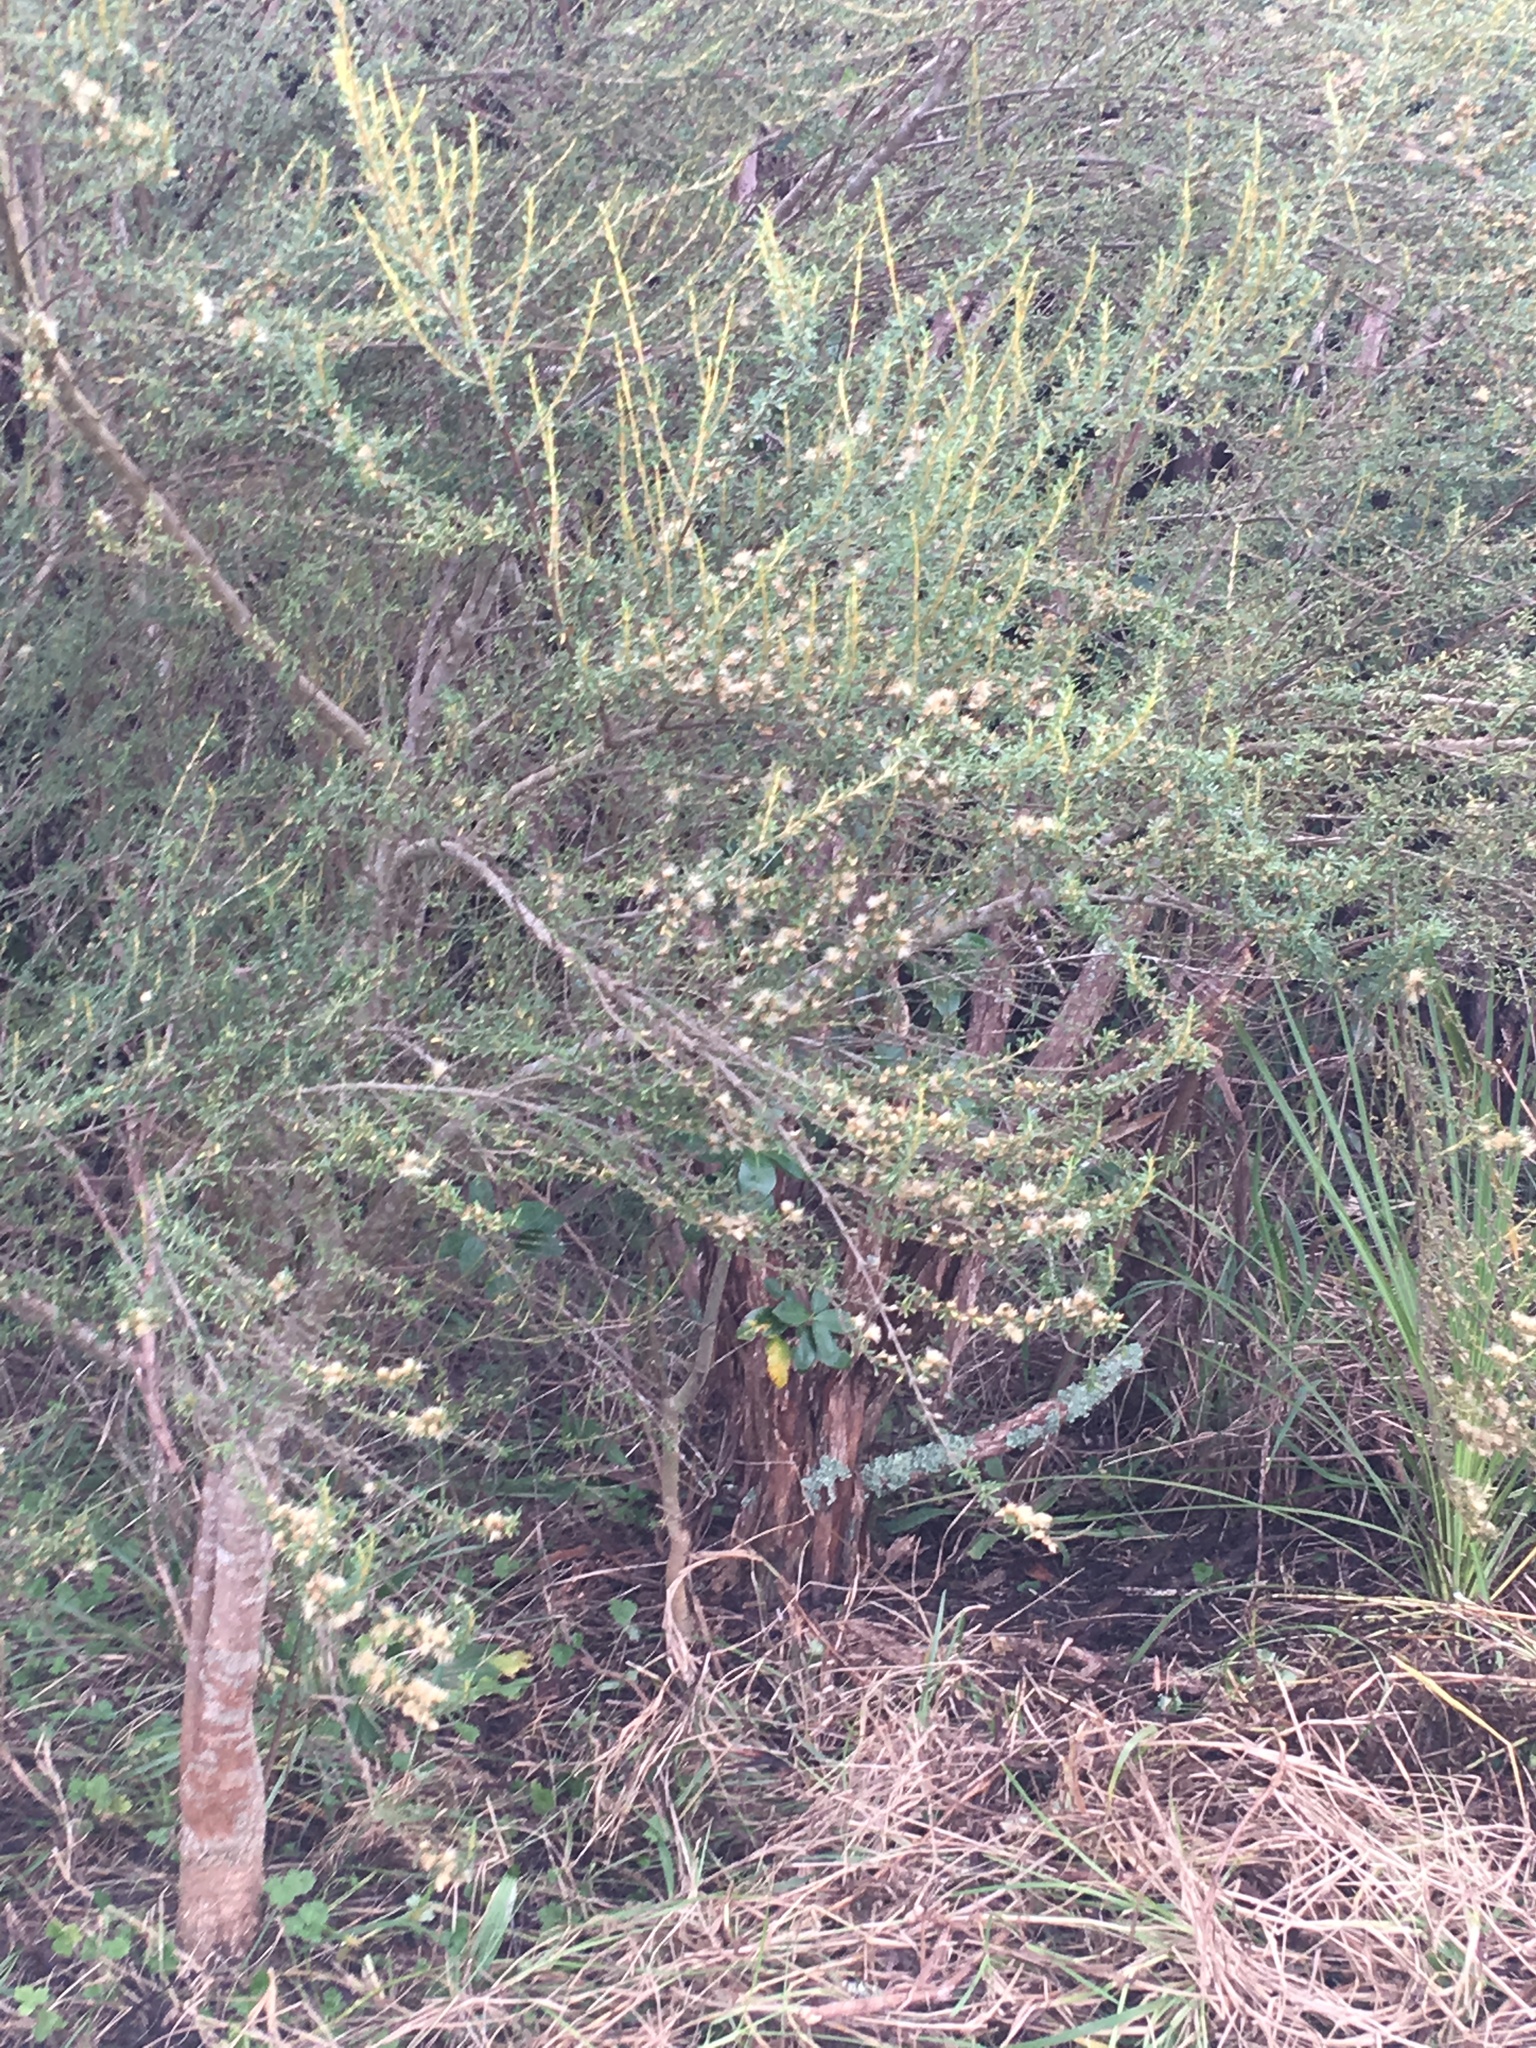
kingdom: Plantae
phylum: Tracheophyta
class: Magnoliopsida
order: Asterales
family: Asteraceae
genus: Olearia
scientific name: Olearia solandri
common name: Coastal daisybush
